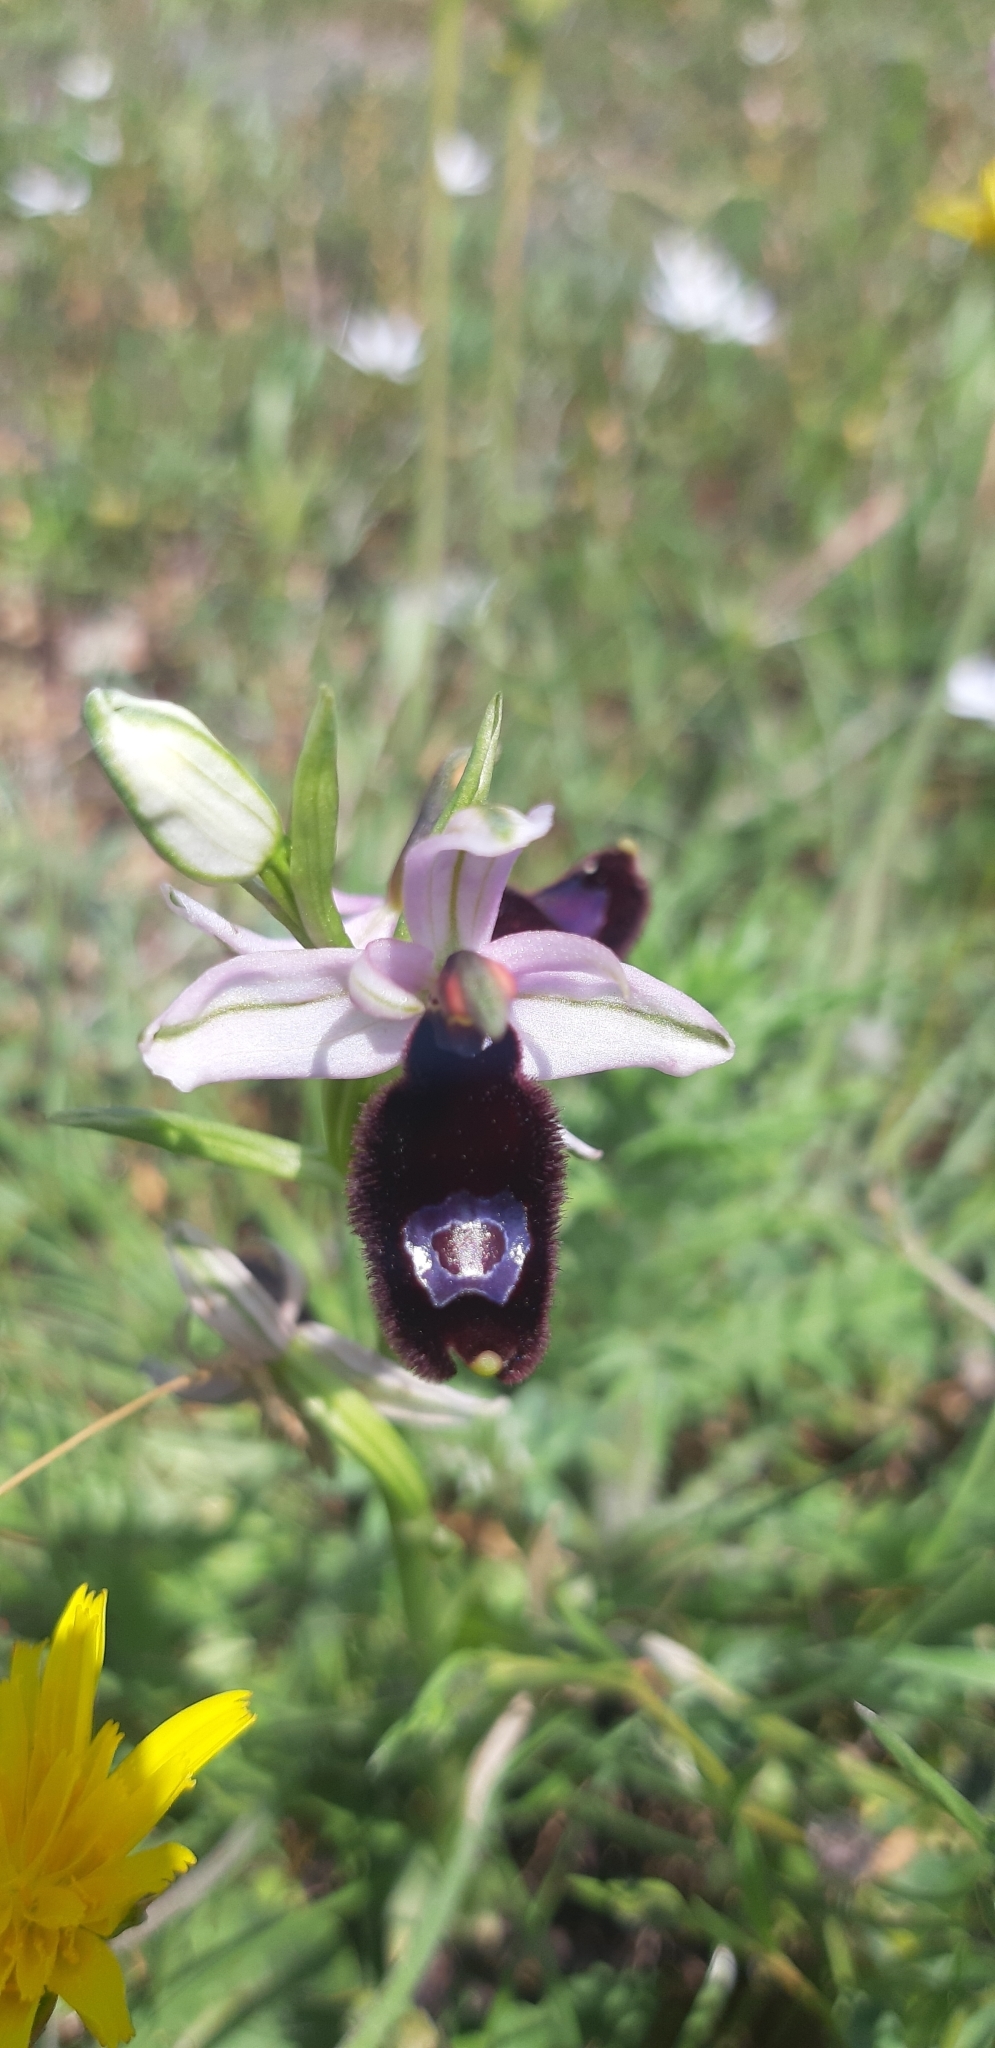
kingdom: Plantae
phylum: Tracheophyta
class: Liliopsida
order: Asparagales
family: Orchidaceae
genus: Ophrys
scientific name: Ophrys bertolonii
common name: Bertoloni's bee orchid
